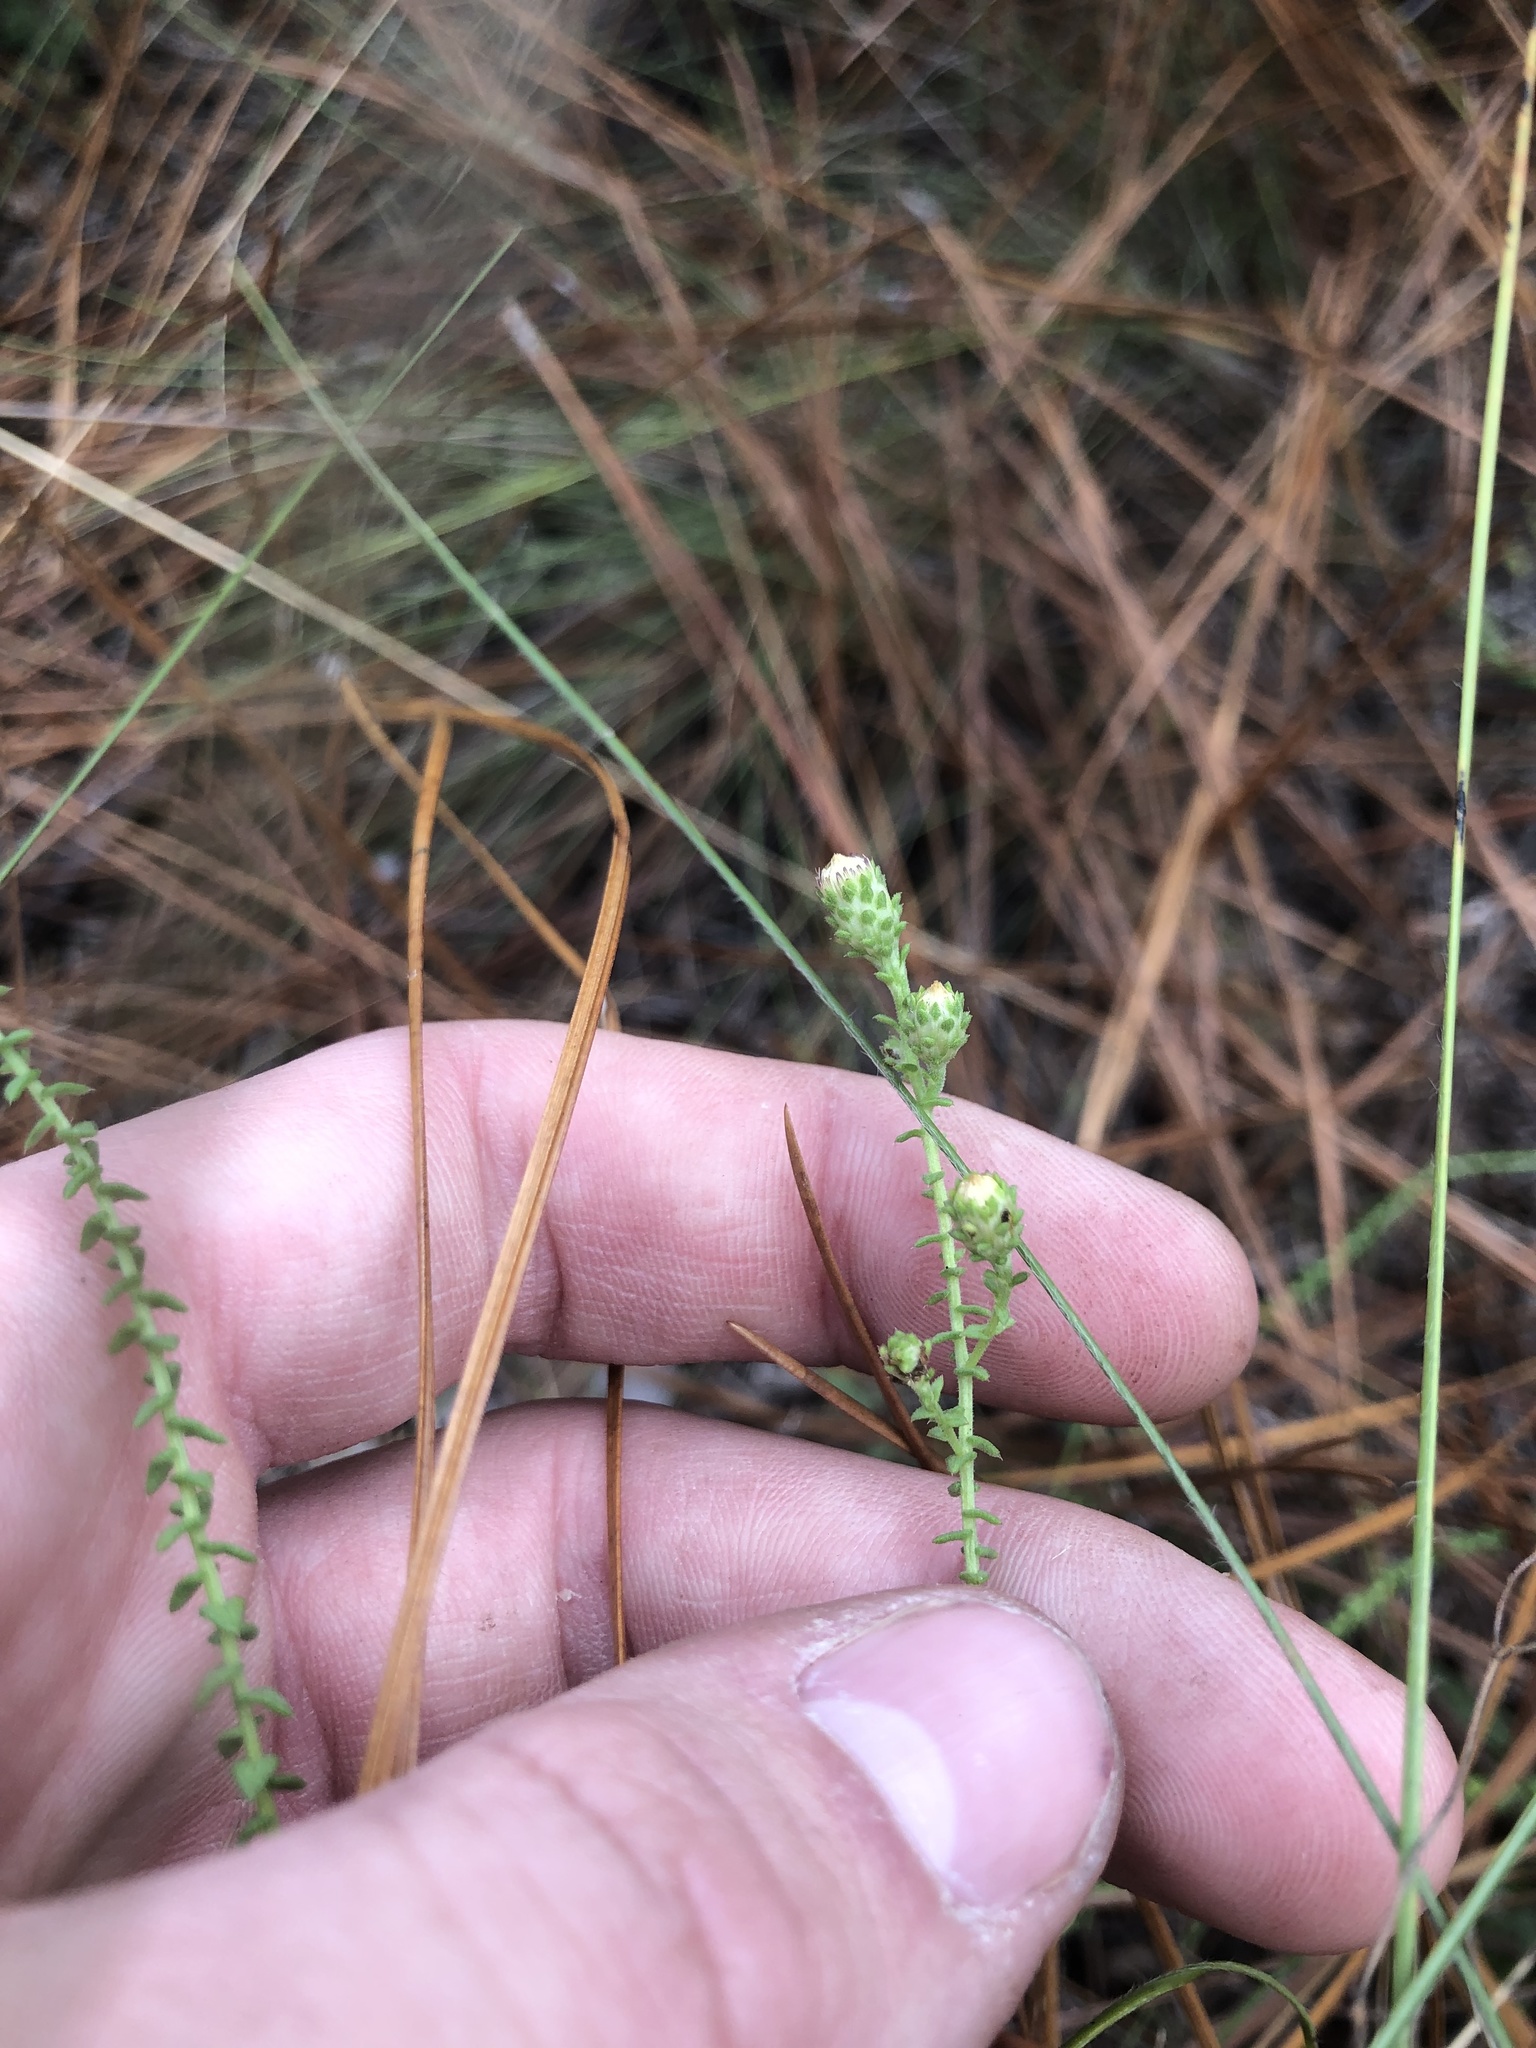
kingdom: Plantae
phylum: Tracheophyta
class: Magnoliopsida
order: Asterales
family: Asteraceae
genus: Symphyotrichum
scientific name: Symphyotrichum walteri
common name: Walter's aster
